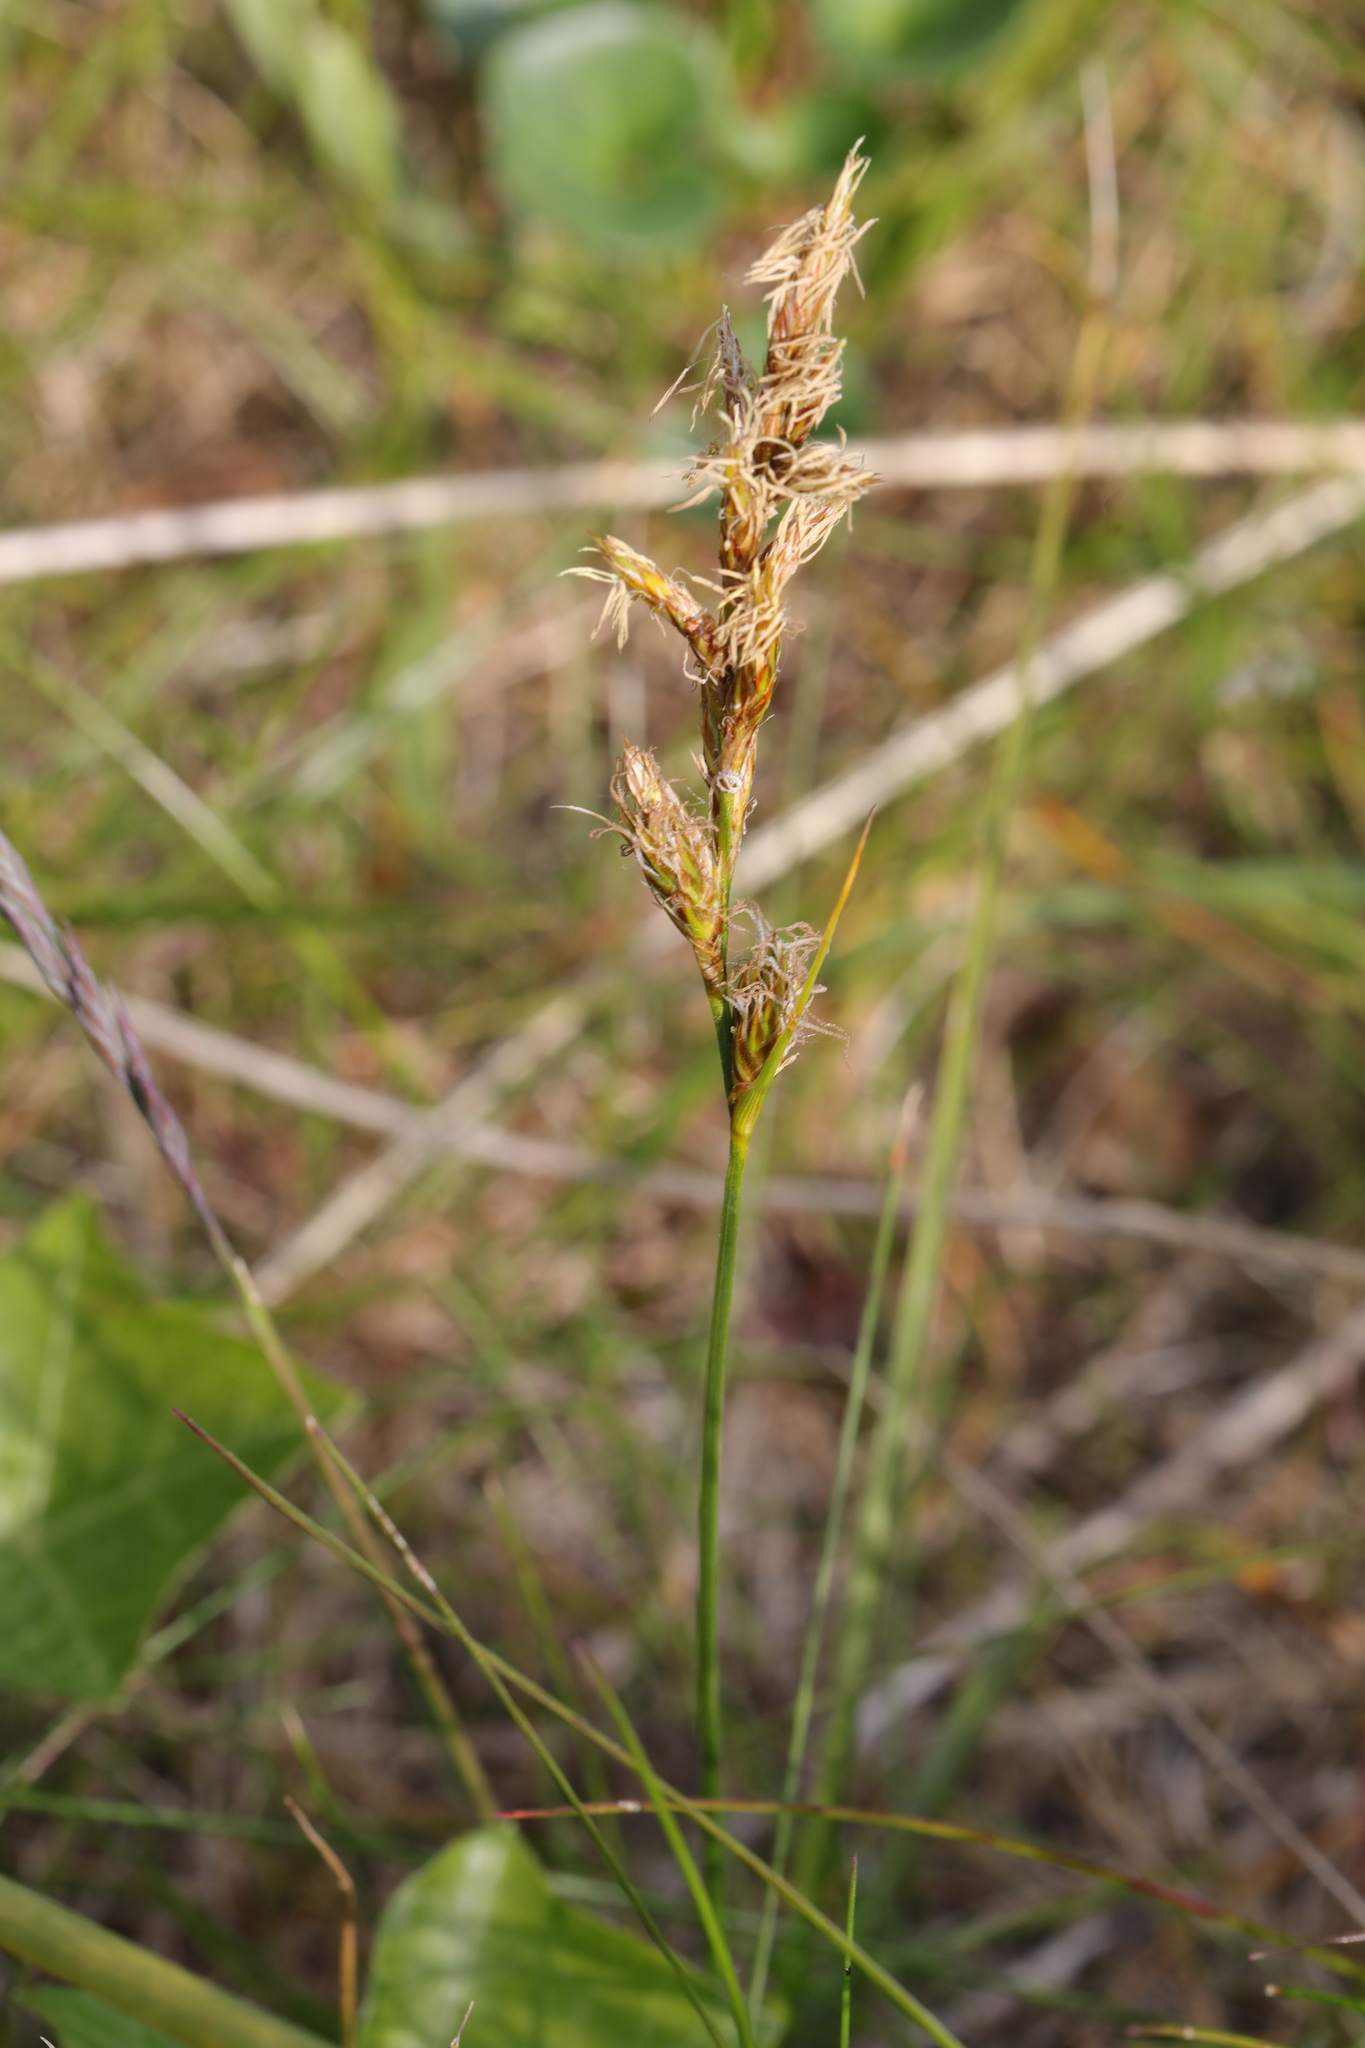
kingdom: Plantae
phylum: Tracheophyta
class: Liliopsida
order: Poales
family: Cyperaceae
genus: Carex
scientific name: Carex arenaria
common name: Sand sedge
